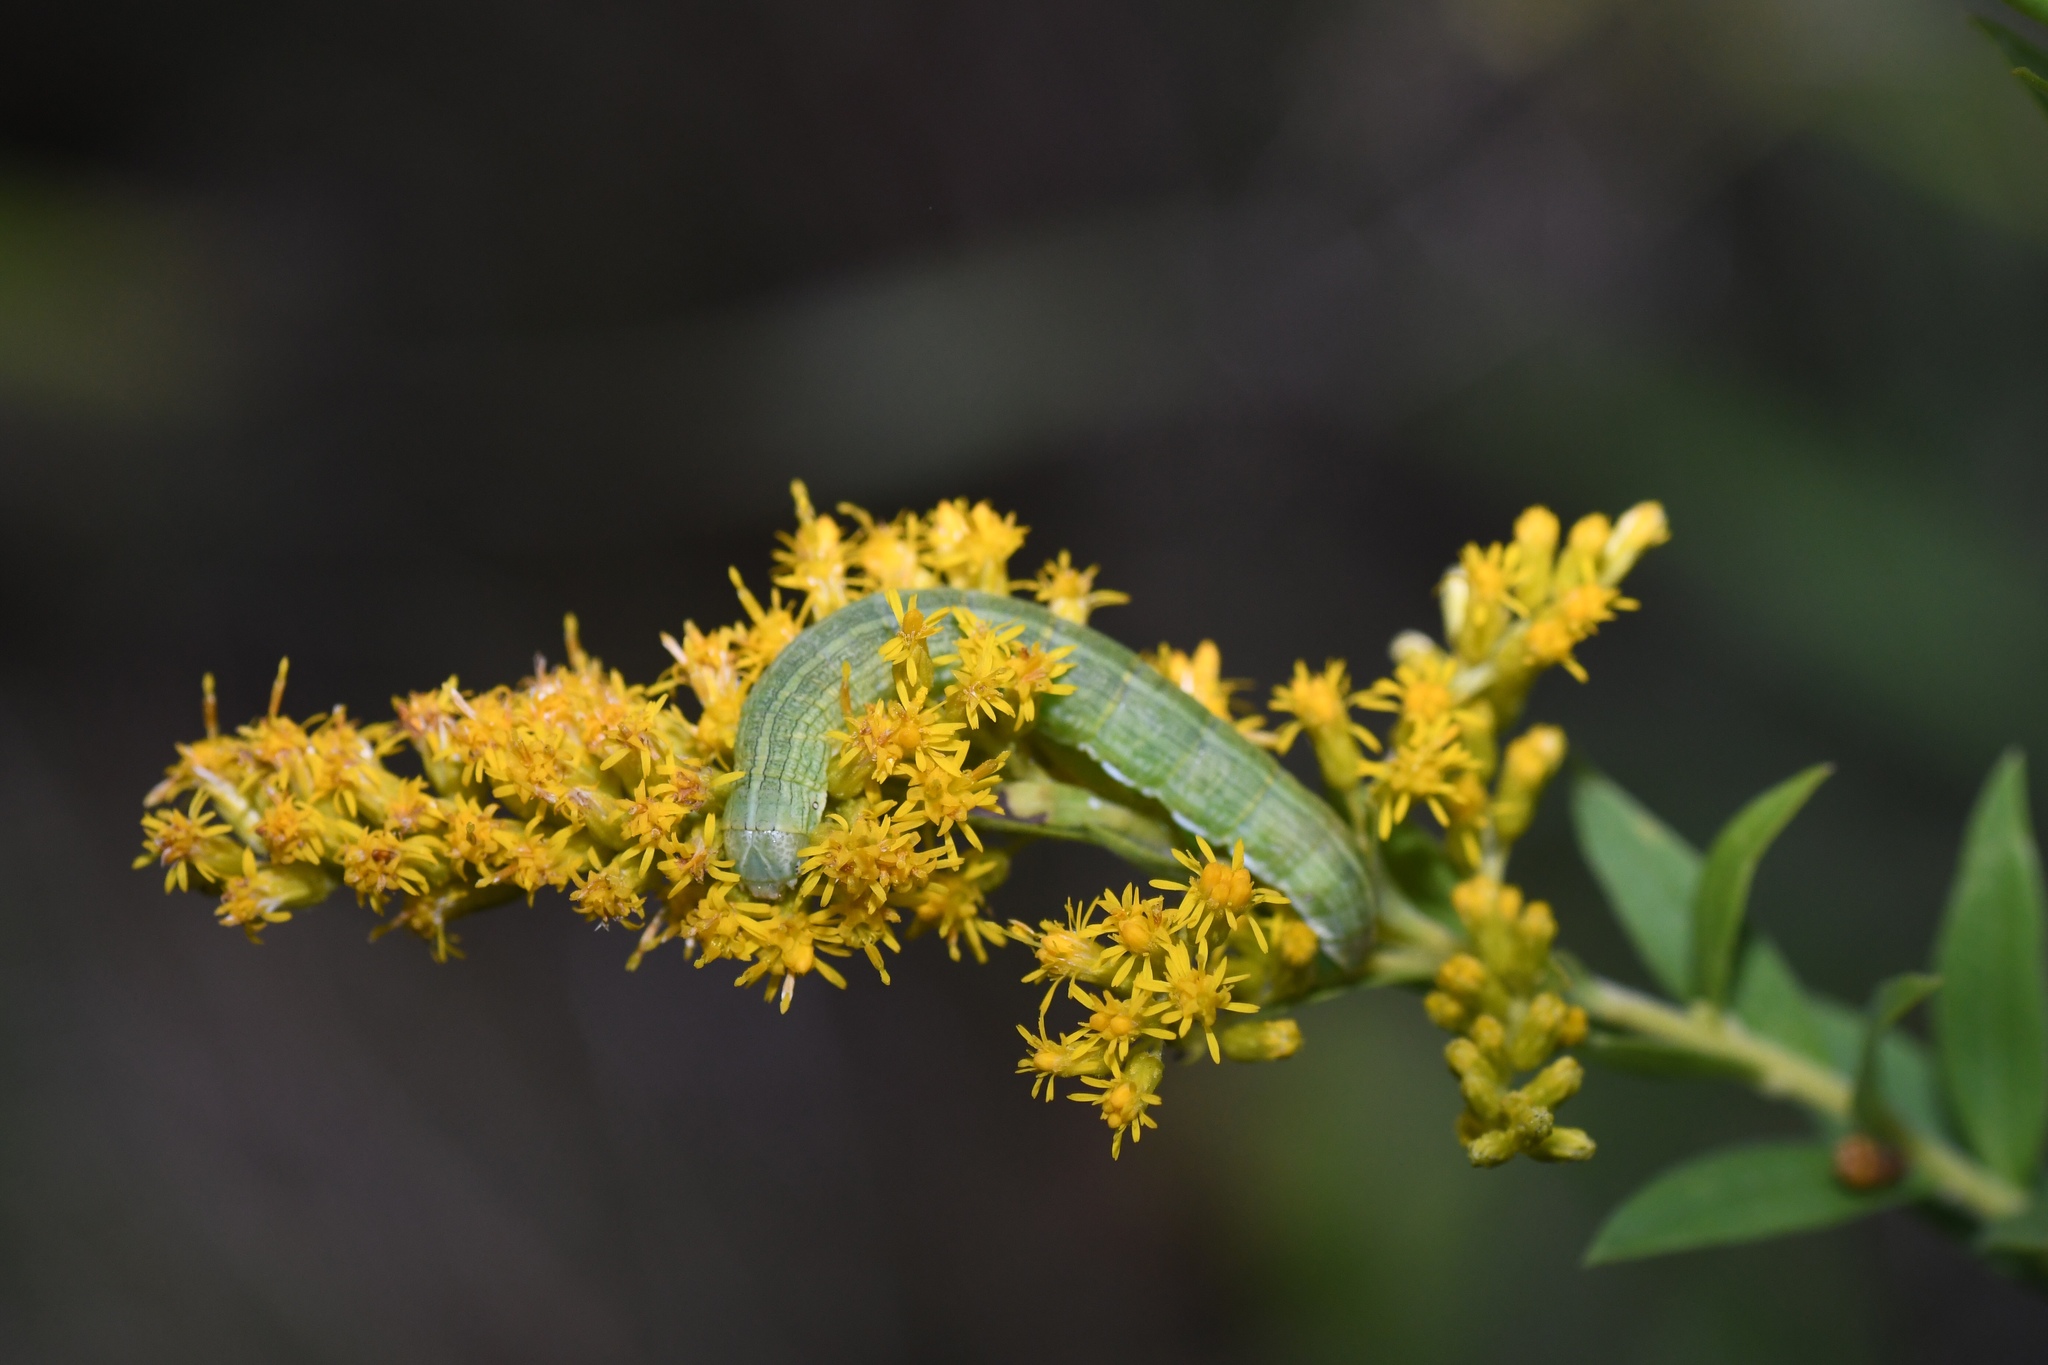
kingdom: Animalia
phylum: Arthropoda
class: Insecta
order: Lepidoptera
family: Noctuidae
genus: Cucullia
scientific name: Cucullia florea
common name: Gray hooded owlet
